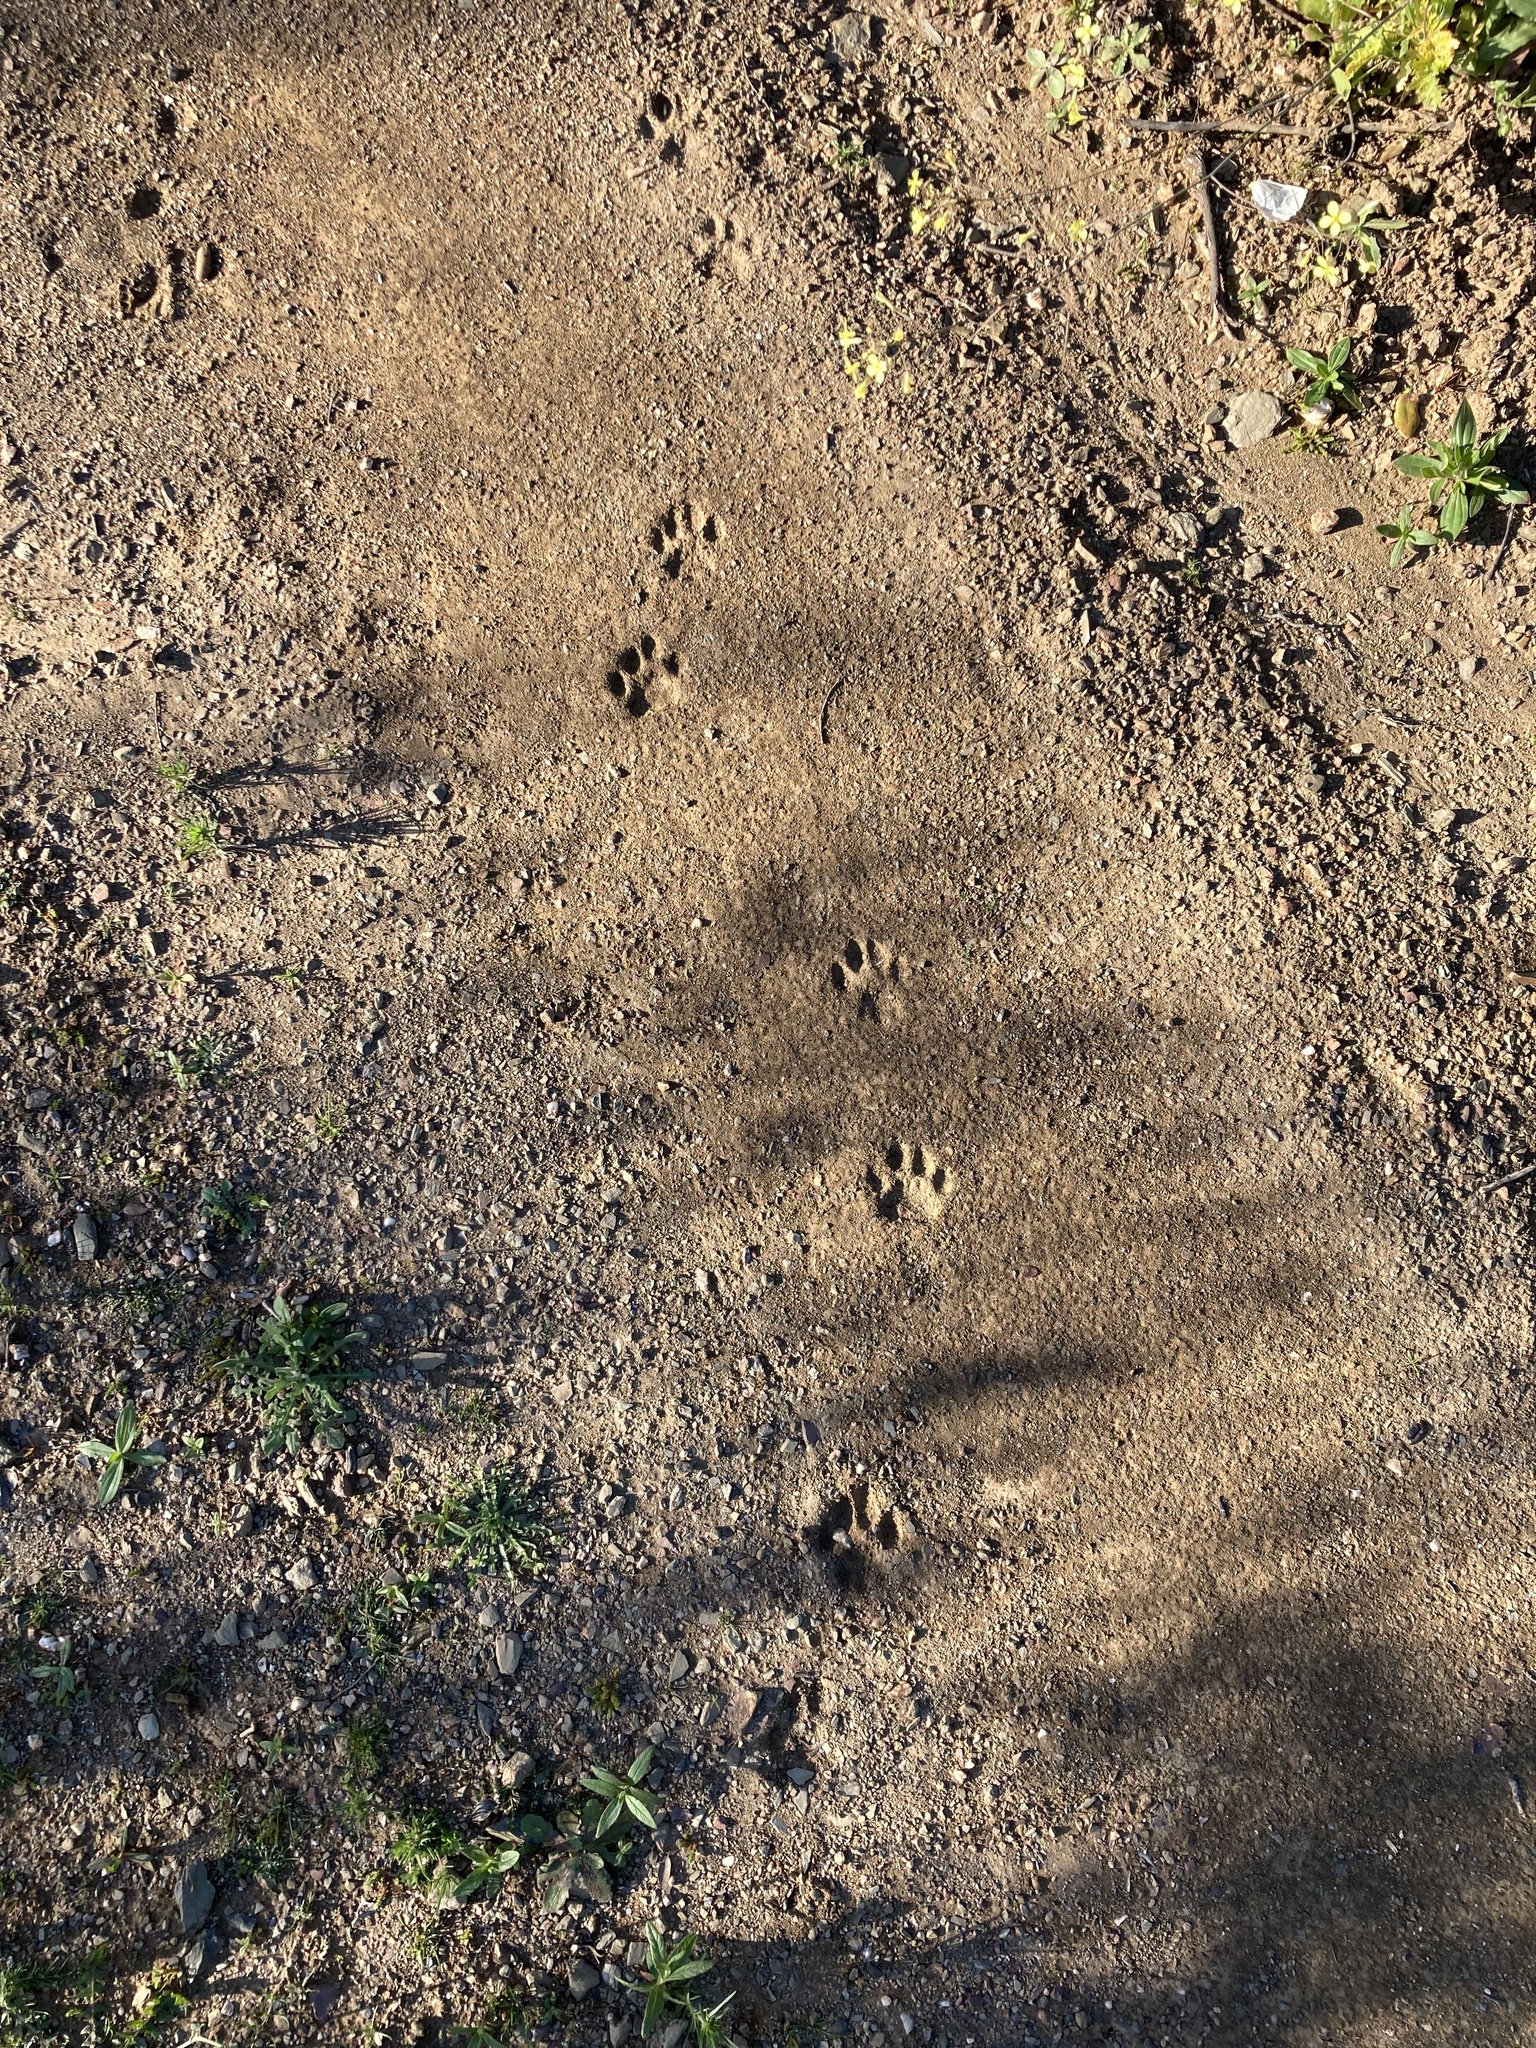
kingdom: Animalia
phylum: Chordata
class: Mammalia
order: Carnivora
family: Felidae
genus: Lynx
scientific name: Lynx pardinus
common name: Spanish lynx
